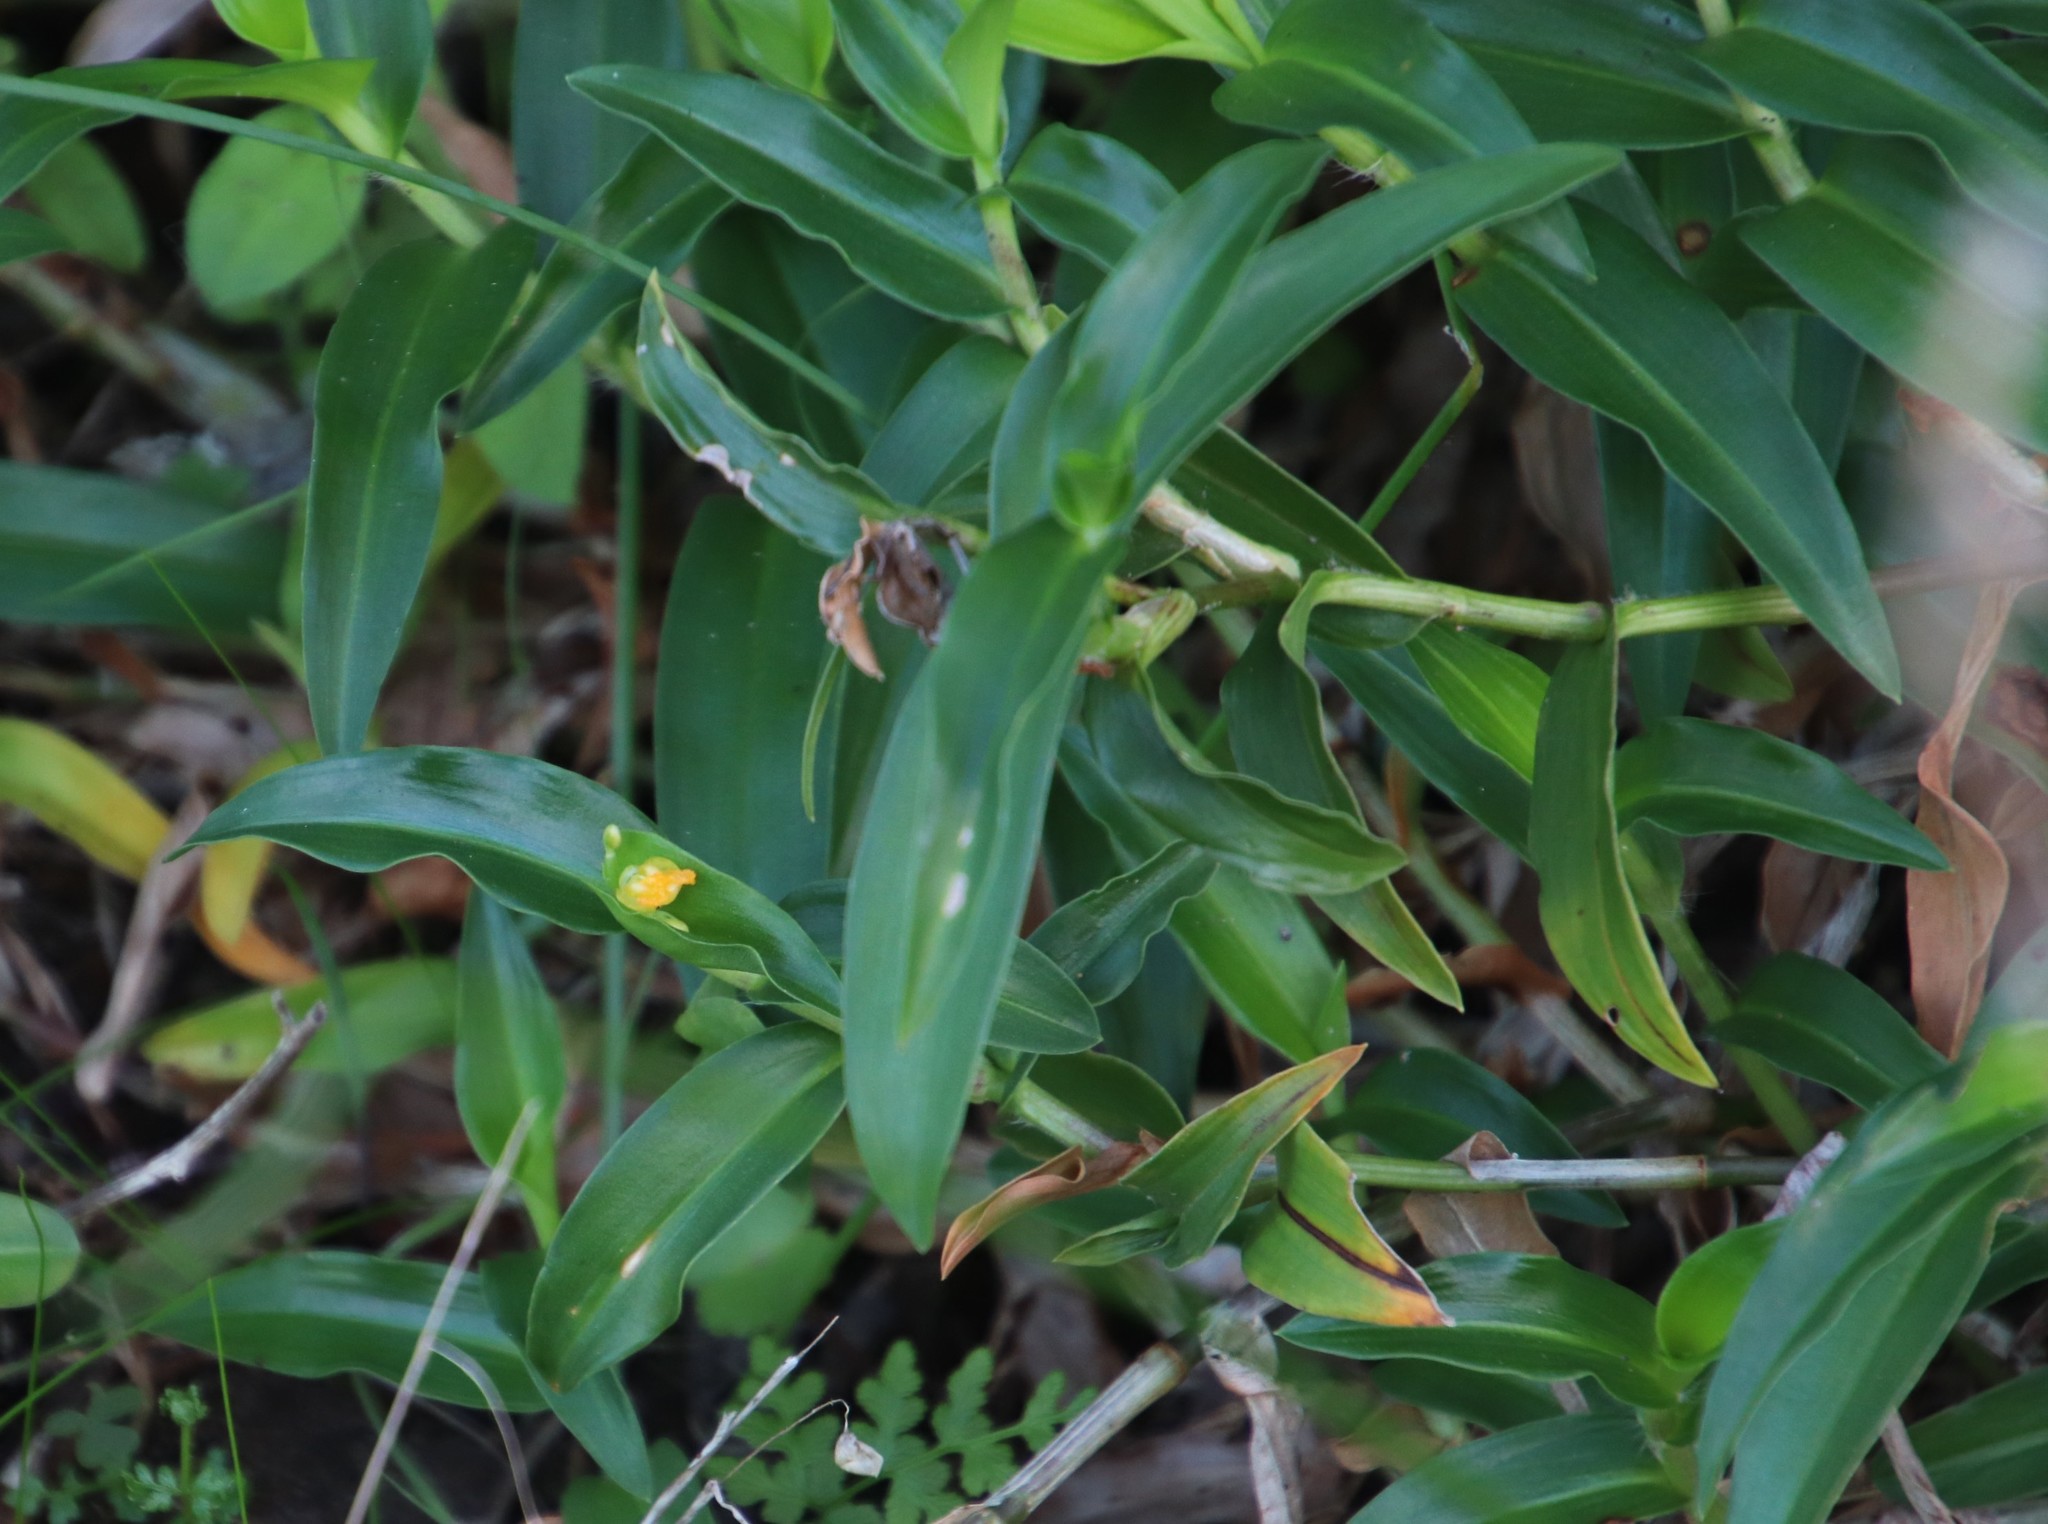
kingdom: Plantae
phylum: Tracheophyta
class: Liliopsida
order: Commelinales
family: Commelinaceae
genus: Commelina
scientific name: Commelina africana
